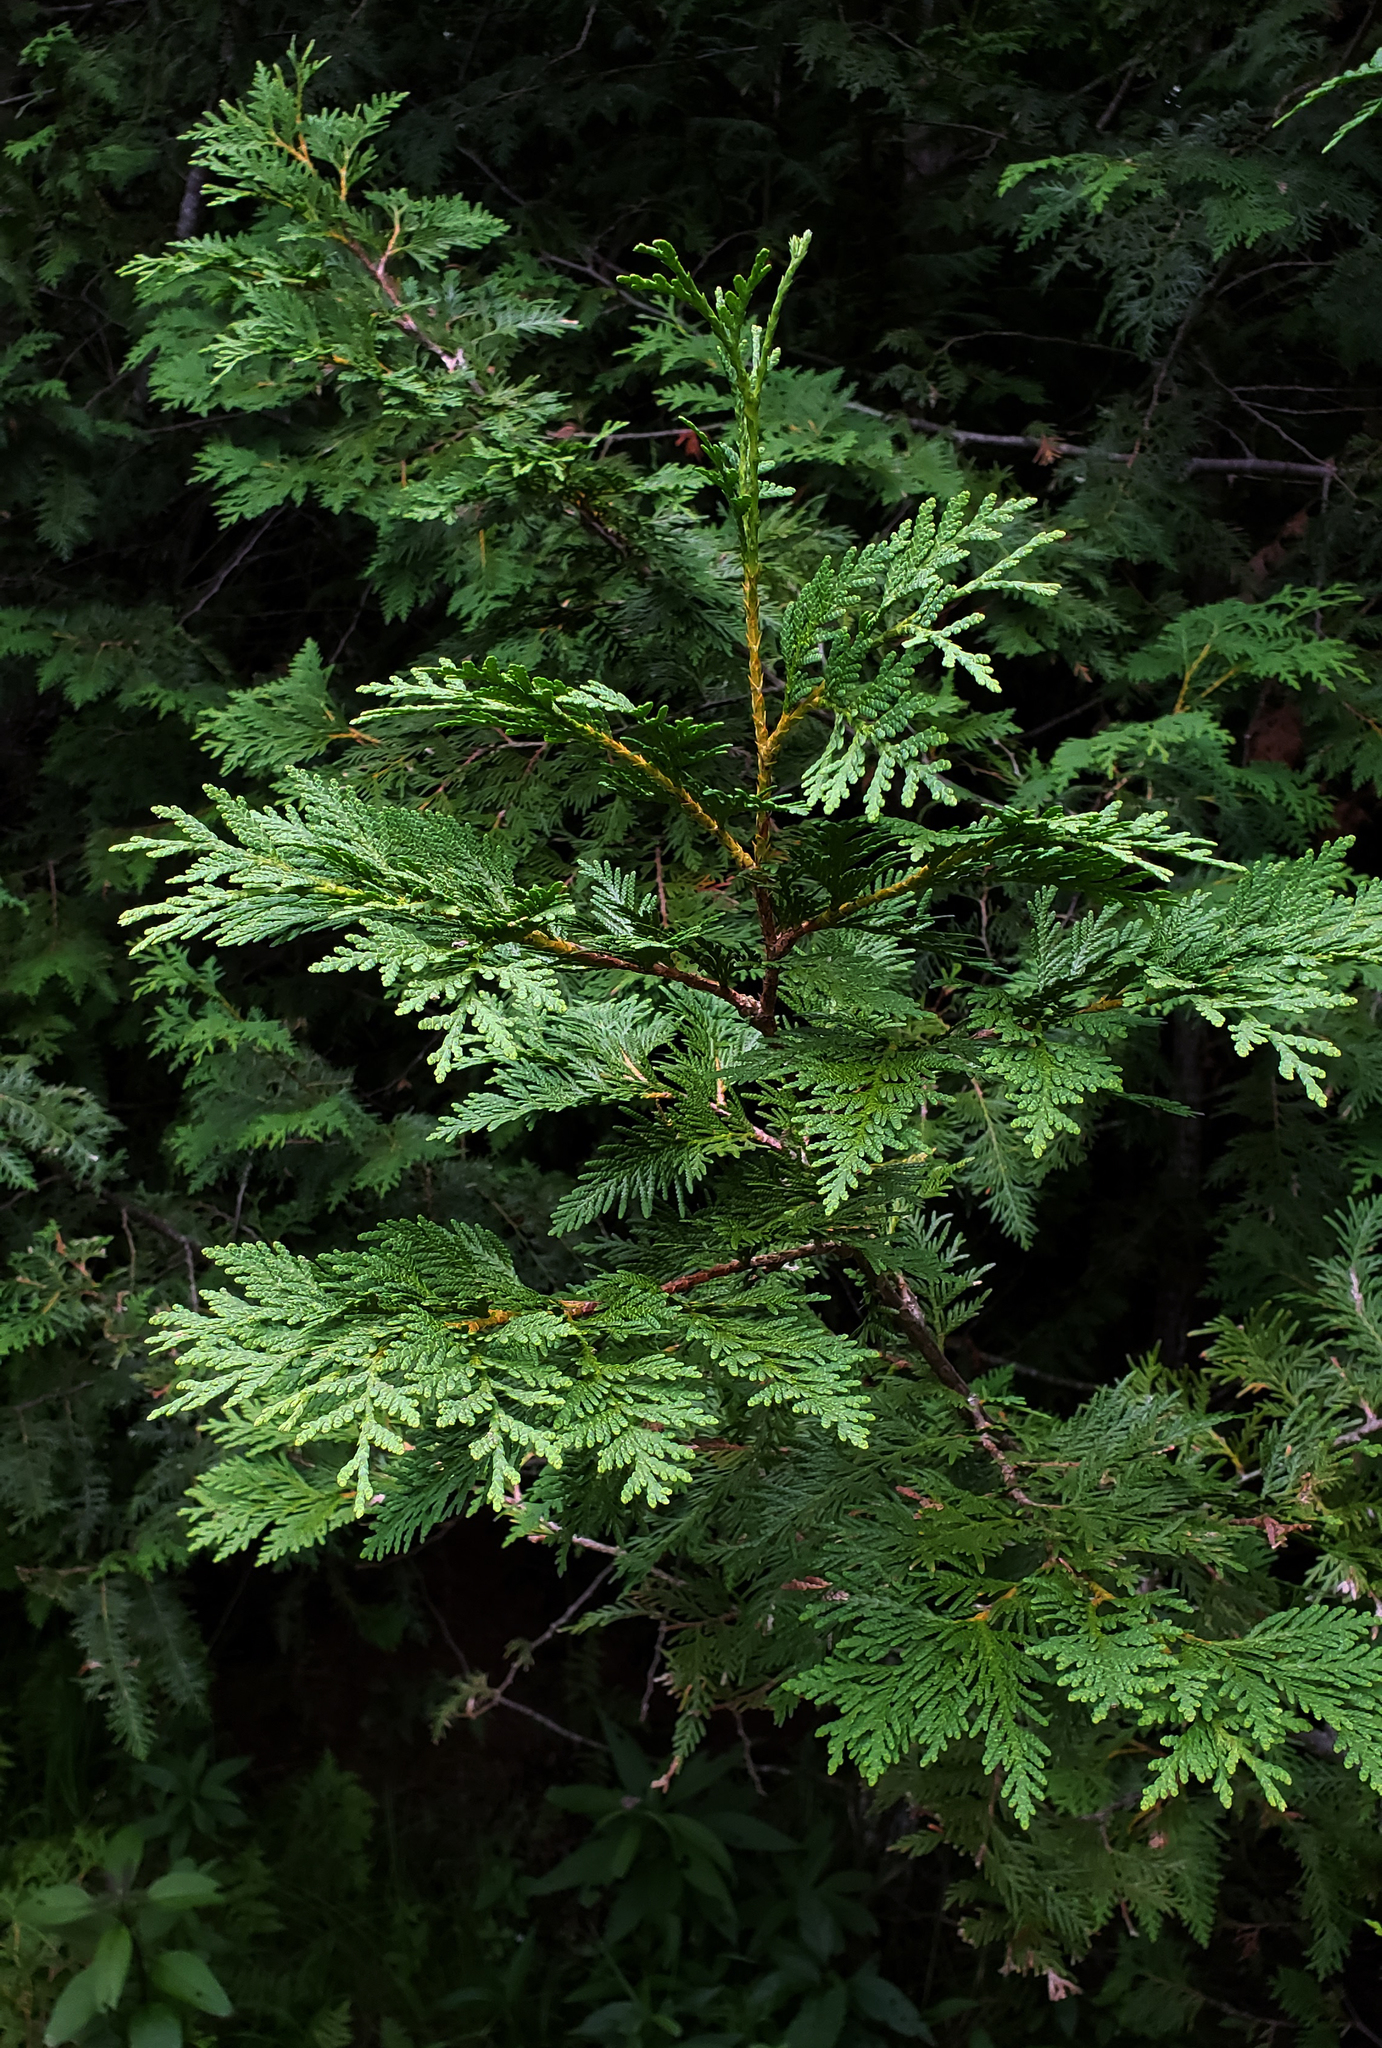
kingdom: Plantae
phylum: Tracheophyta
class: Pinopsida
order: Pinales
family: Cupressaceae
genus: Thuja
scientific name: Thuja occidentalis
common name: Northern white-cedar
